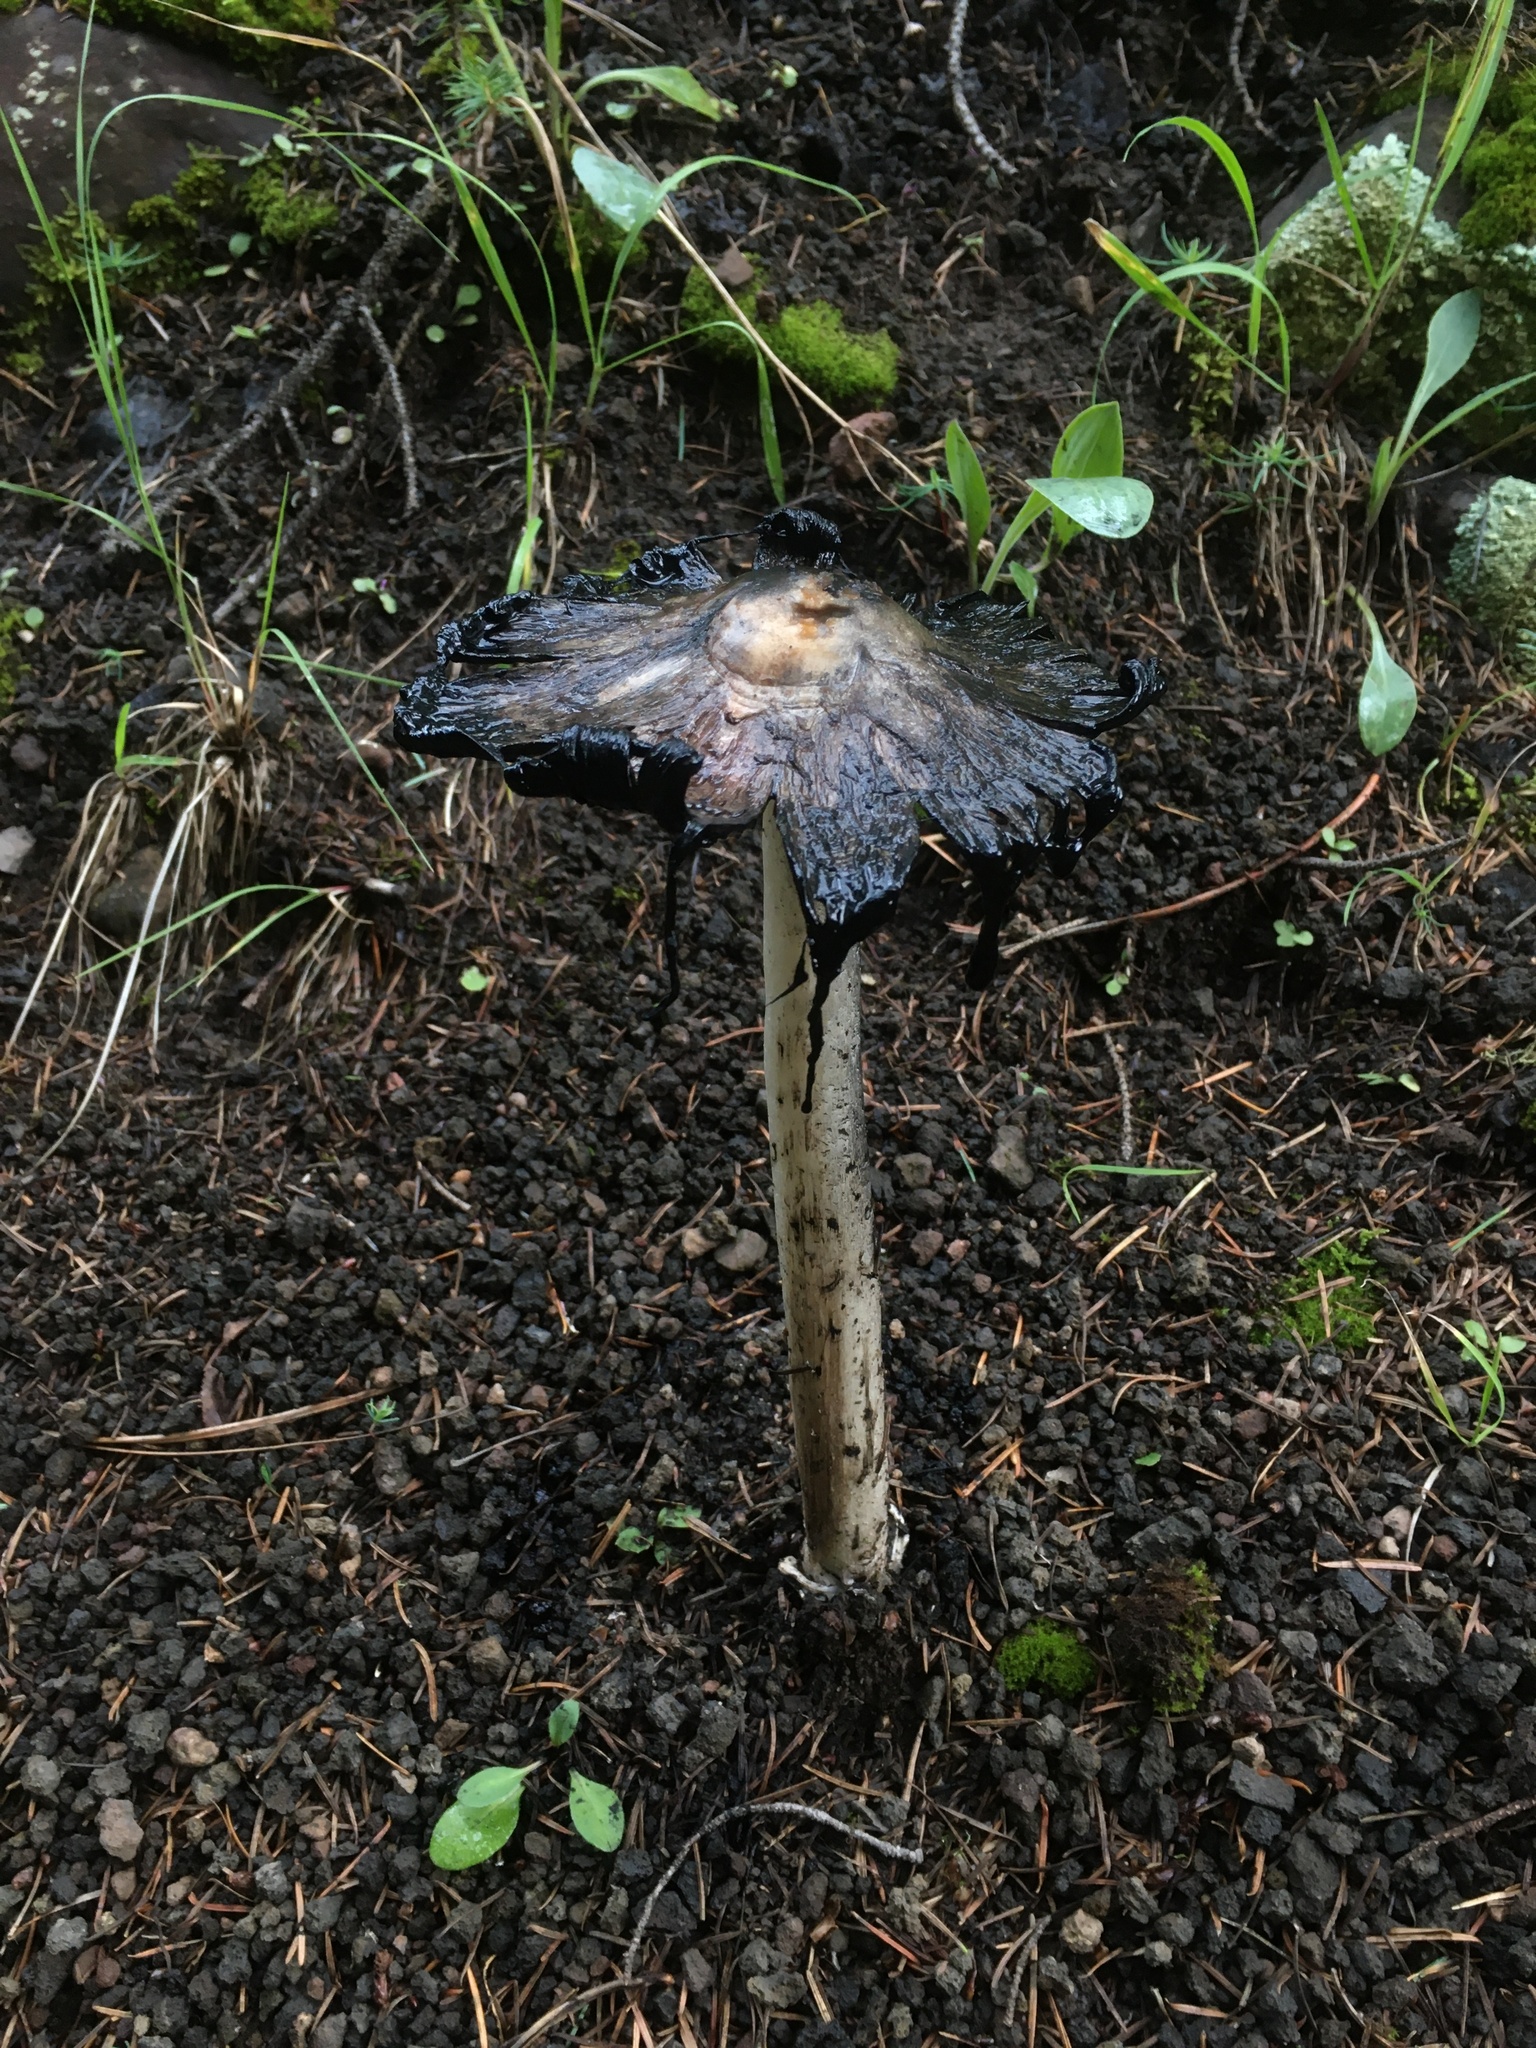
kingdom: Fungi
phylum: Basidiomycota
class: Agaricomycetes
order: Agaricales
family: Agaricaceae
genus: Coprinus
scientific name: Coprinus comatus
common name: Lawyer's wig
